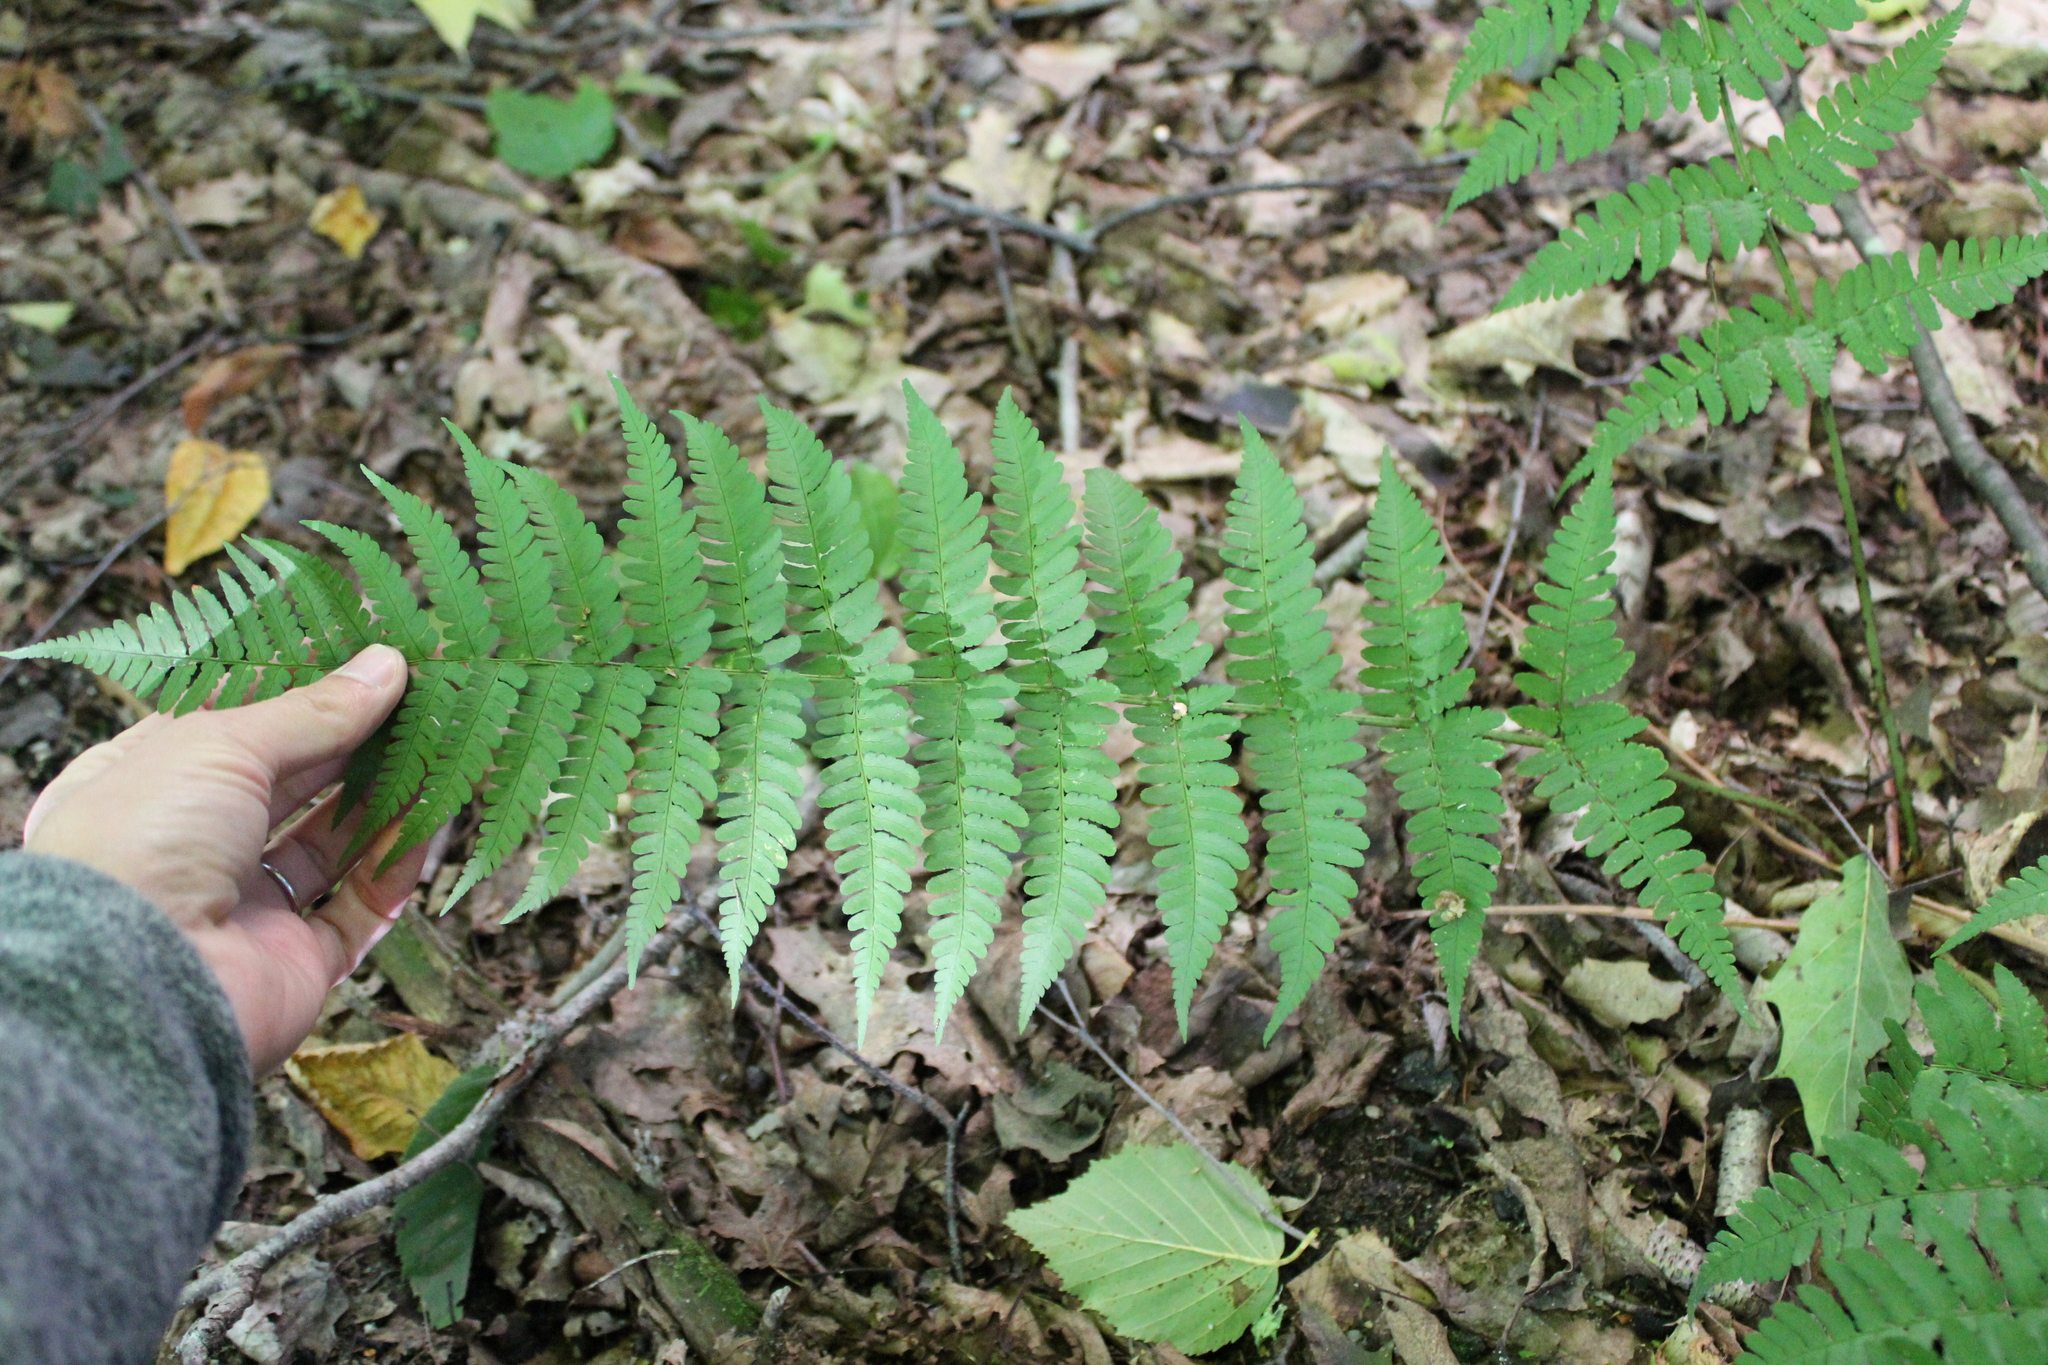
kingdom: Plantae
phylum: Tracheophyta
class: Polypodiopsida
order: Polypodiales
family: Dryopteridaceae
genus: Dryopteris
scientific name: Dryopteris marginalis
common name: Marginal wood fern
